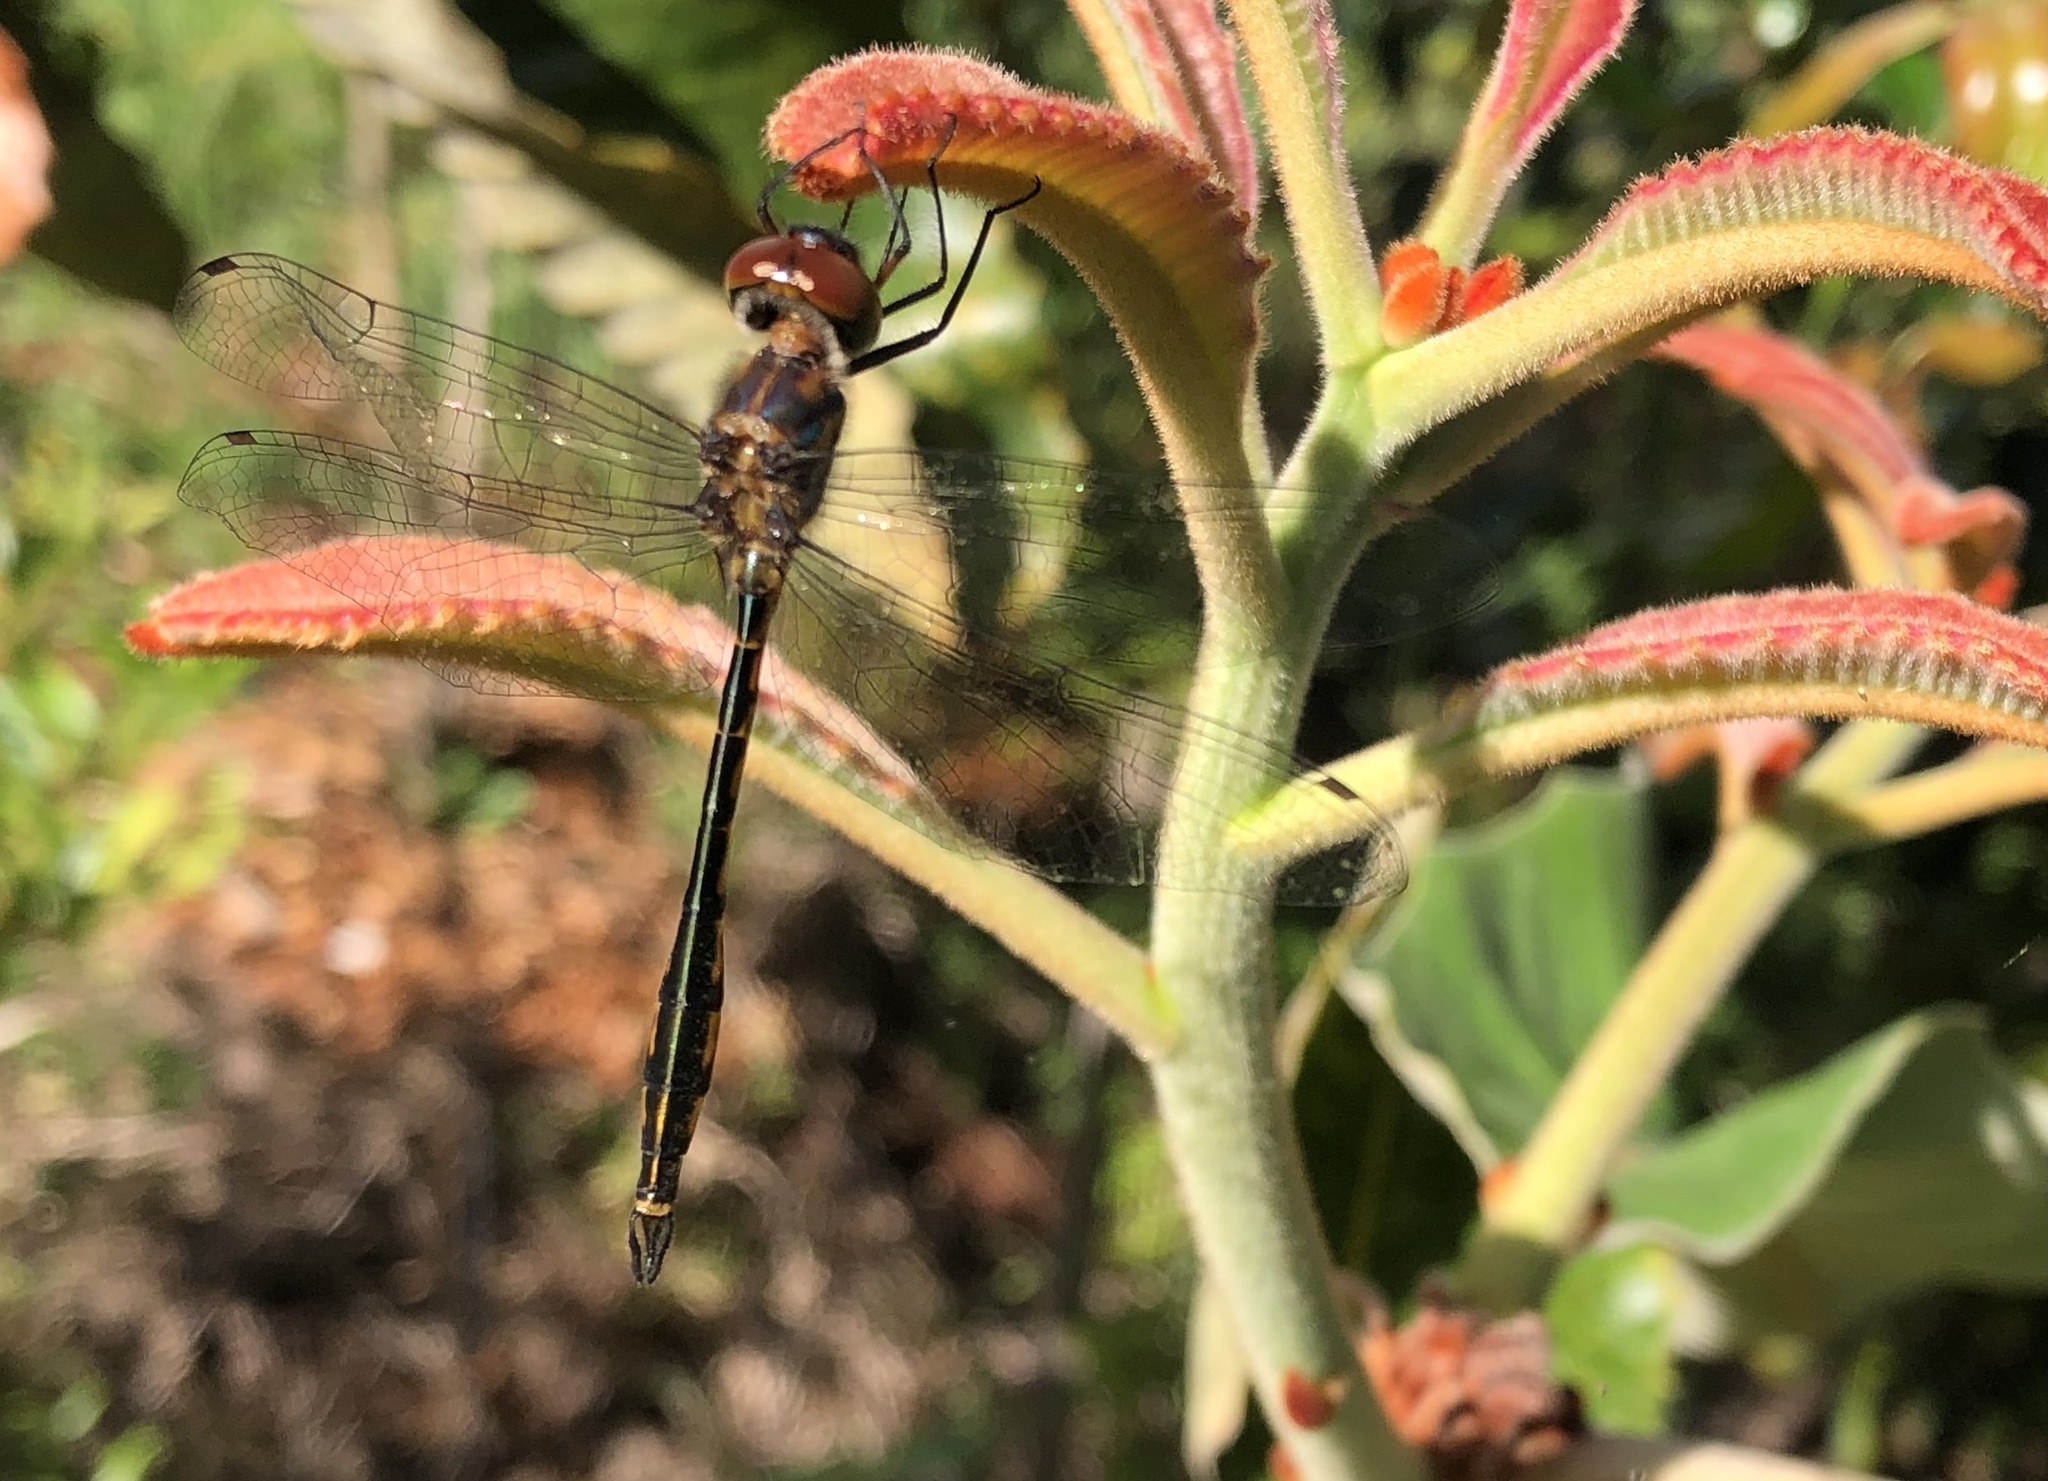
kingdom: Animalia
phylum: Arthropoda
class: Insecta
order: Odonata
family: Corduliidae
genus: Hemicordulia
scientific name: Hemicordulia continentalis
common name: Fat-bellied emerald
